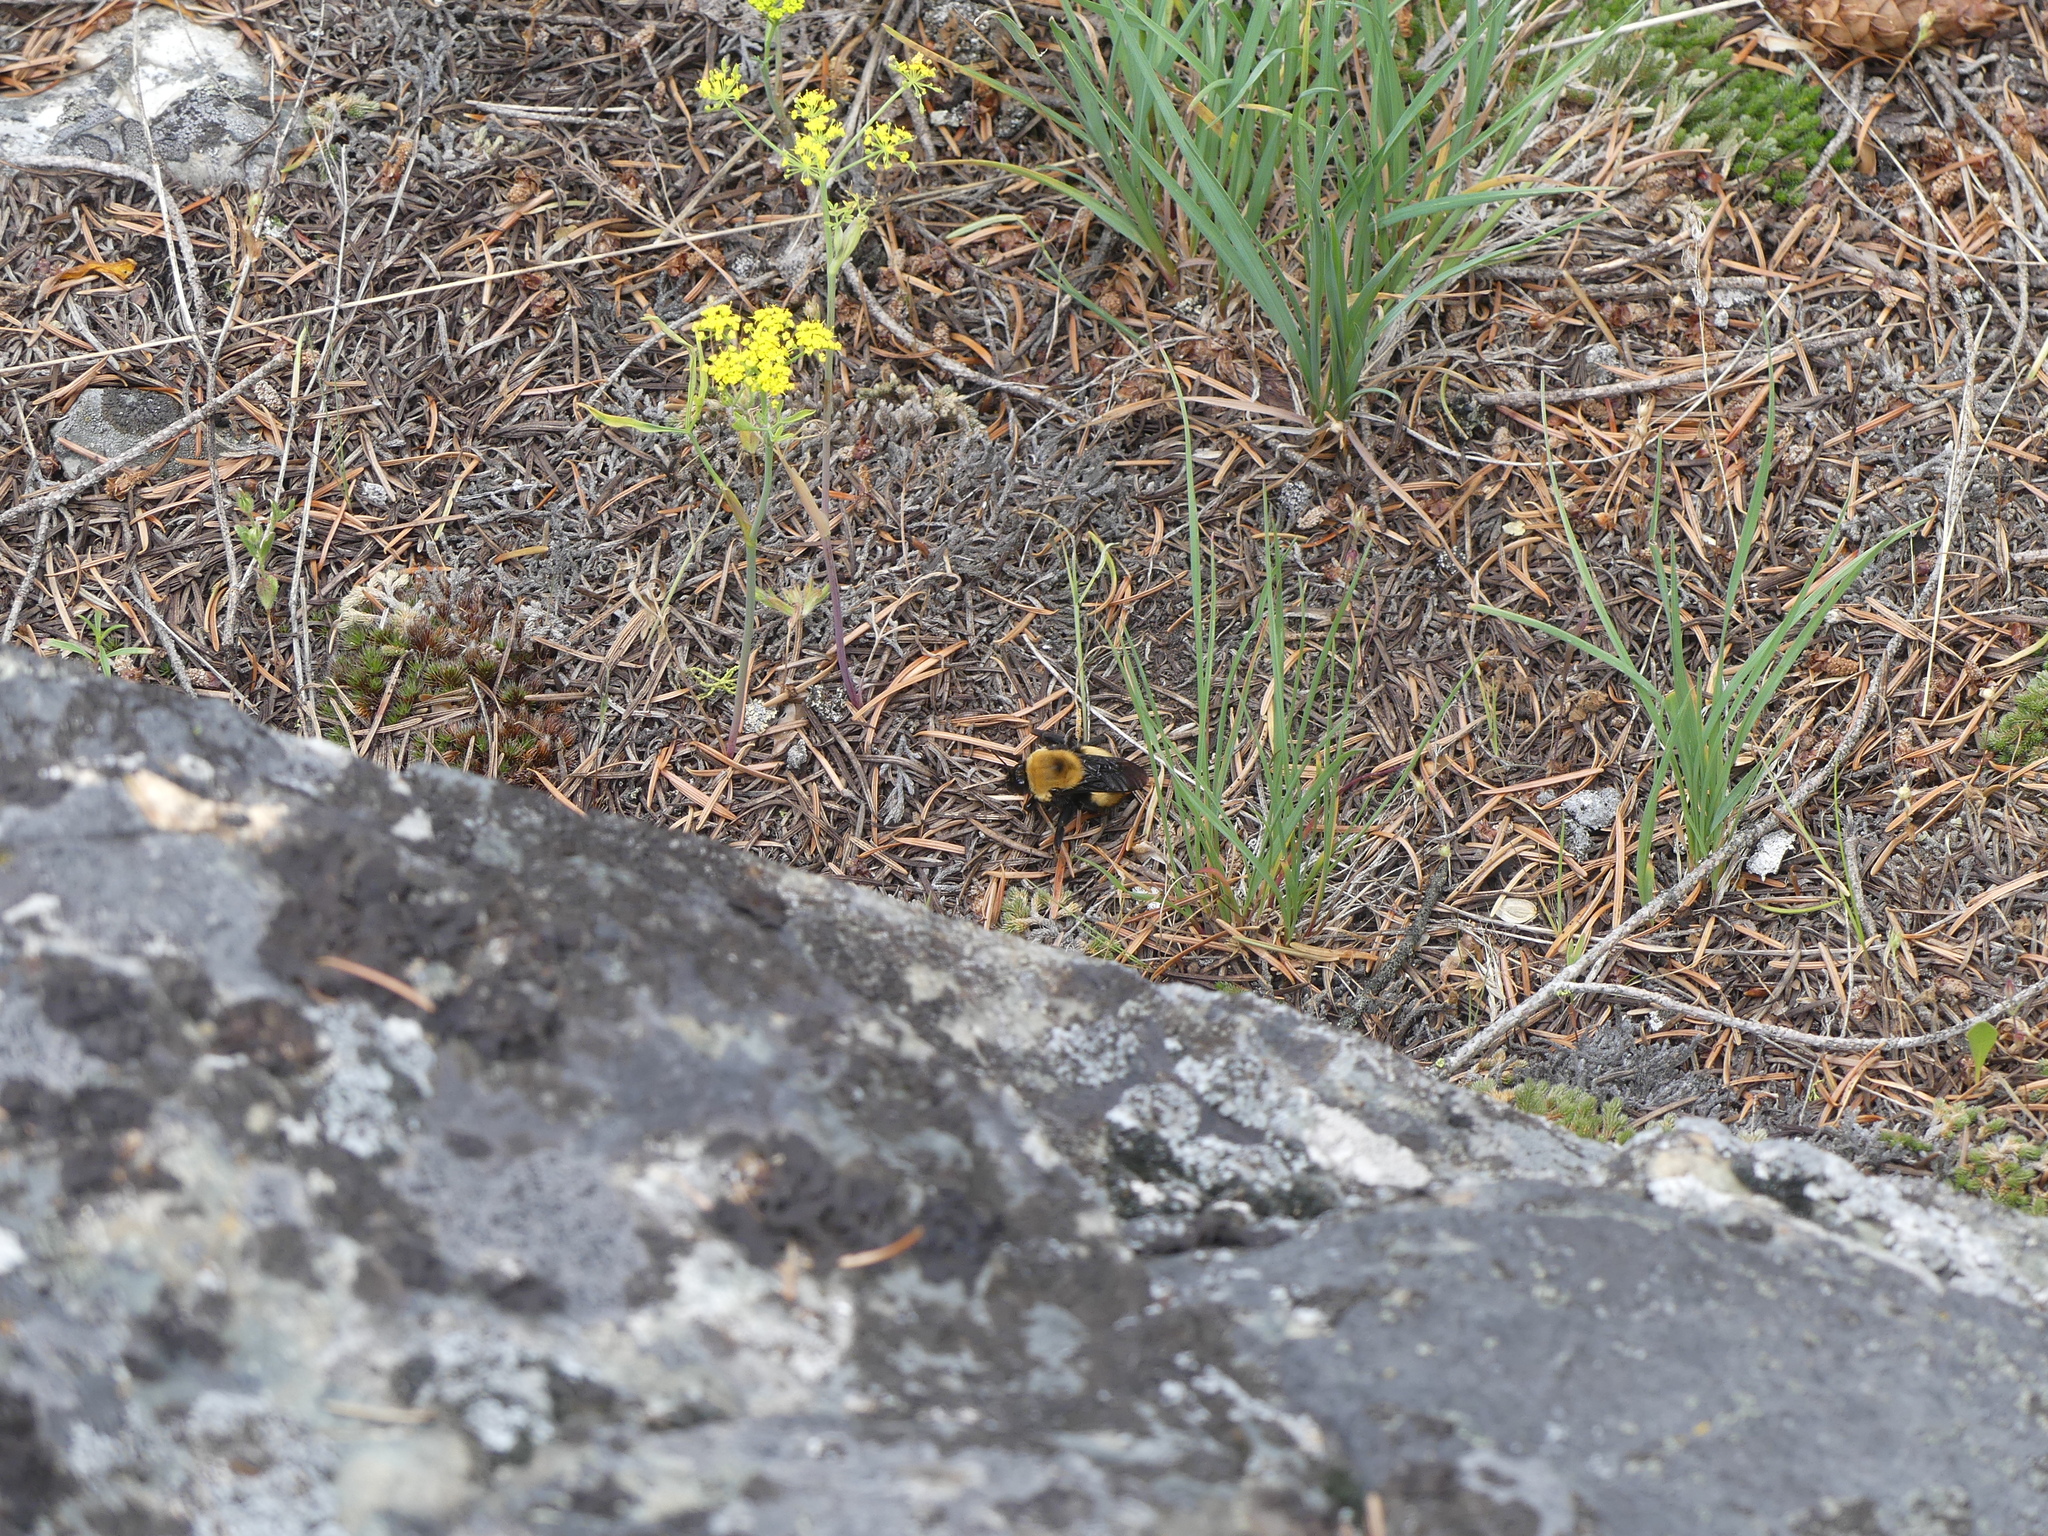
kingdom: Animalia
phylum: Arthropoda
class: Insecta
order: Hymenoptera
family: Apidae
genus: Bombus
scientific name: Bombus nevadensis
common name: Nevada bumble bee
